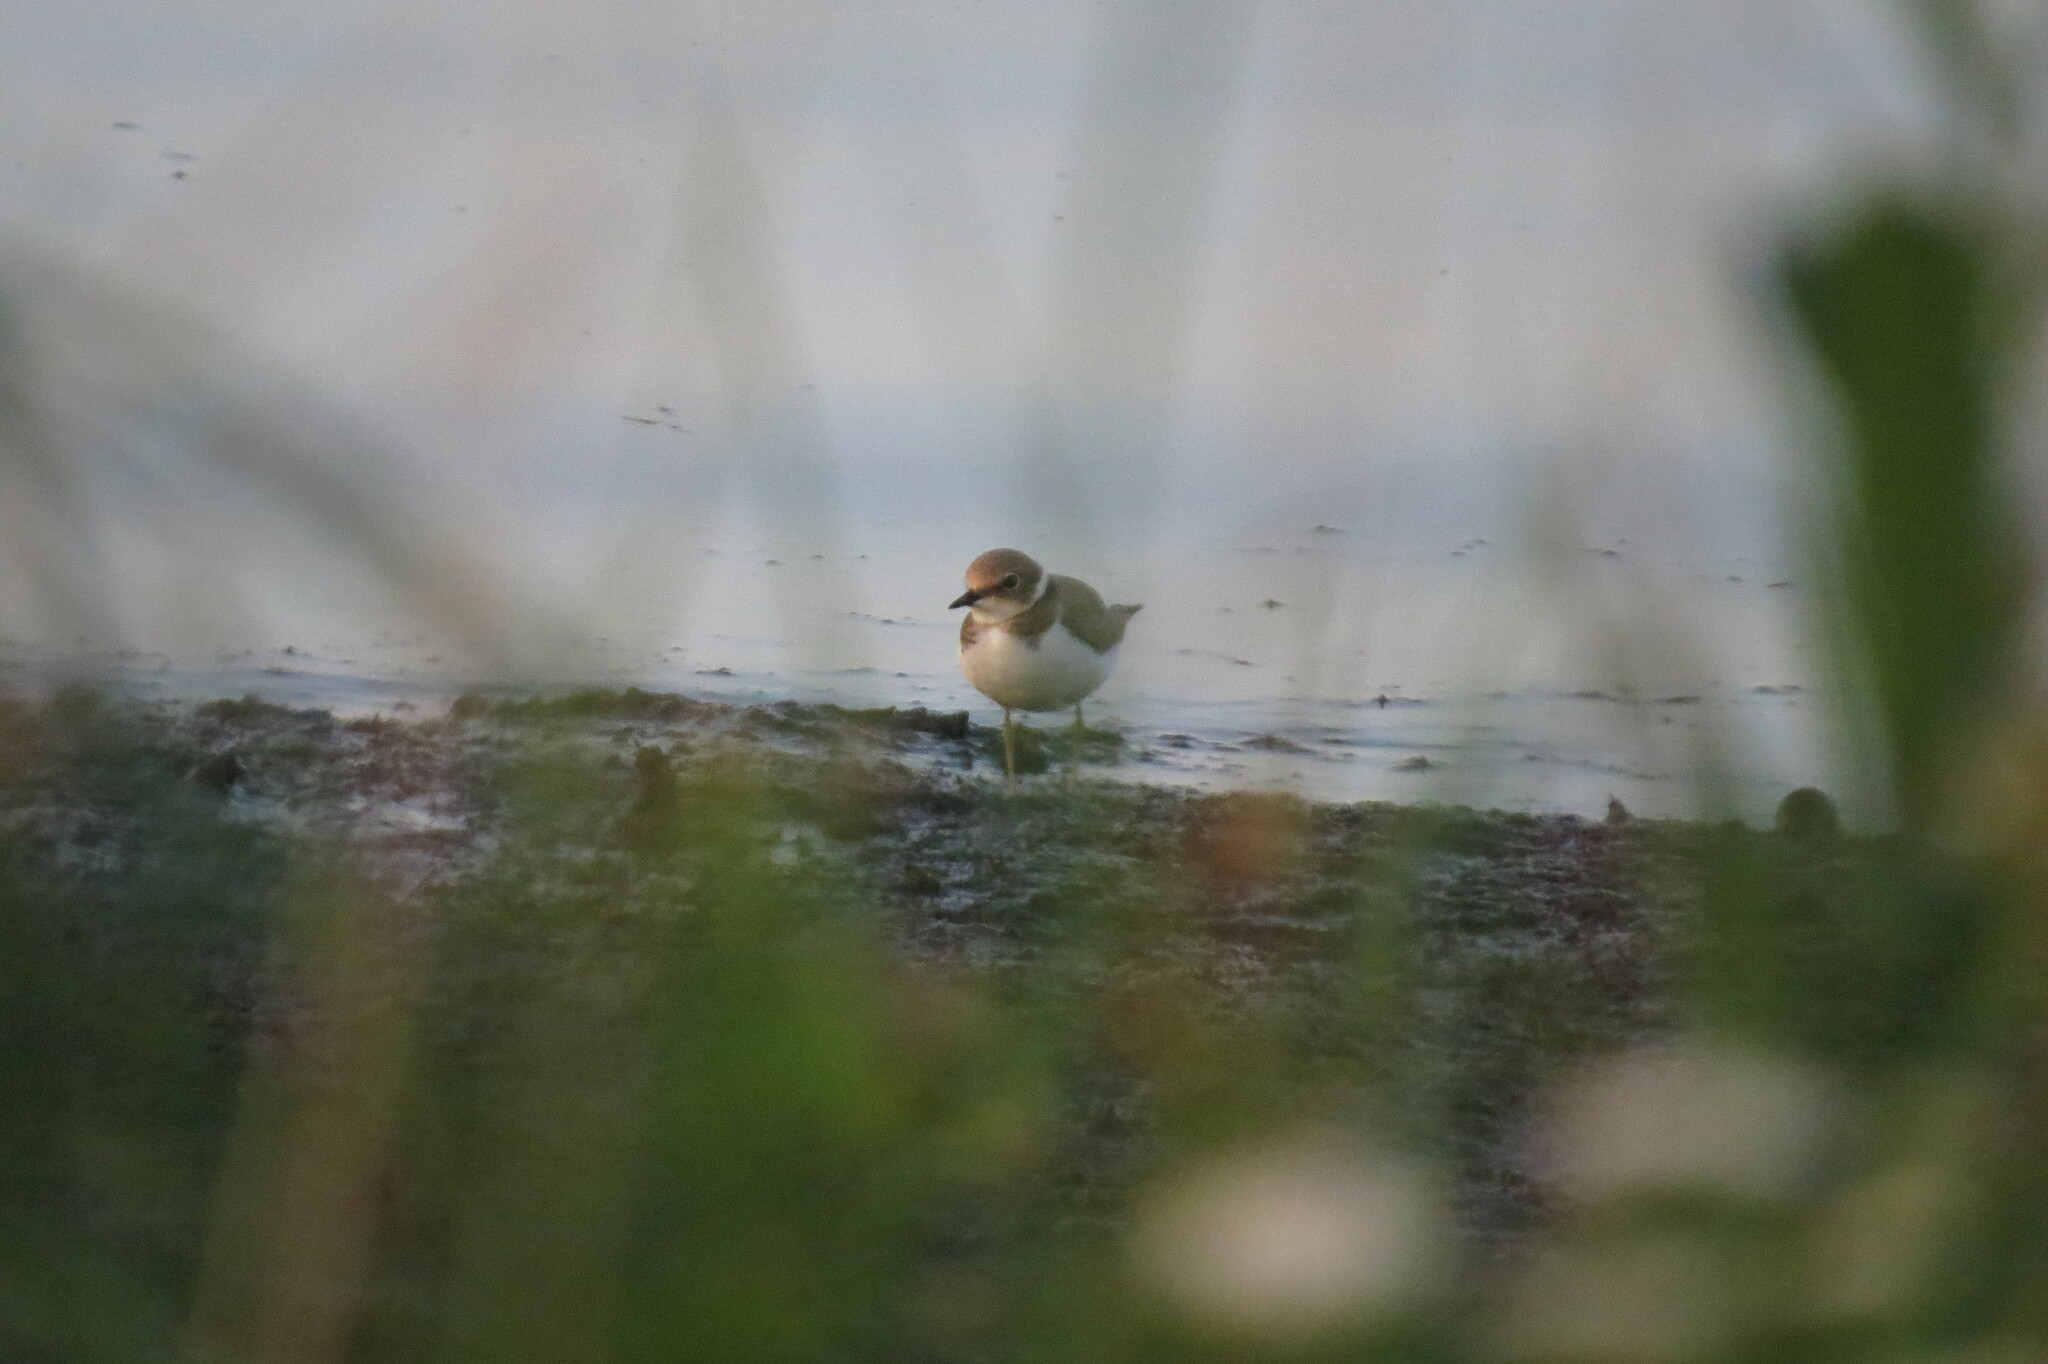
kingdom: Animalia
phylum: Chordata
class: Aves
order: Charadriiformes
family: Charadriidae
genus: Charadrius
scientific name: Charadrius dubius
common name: Little ringed plover
